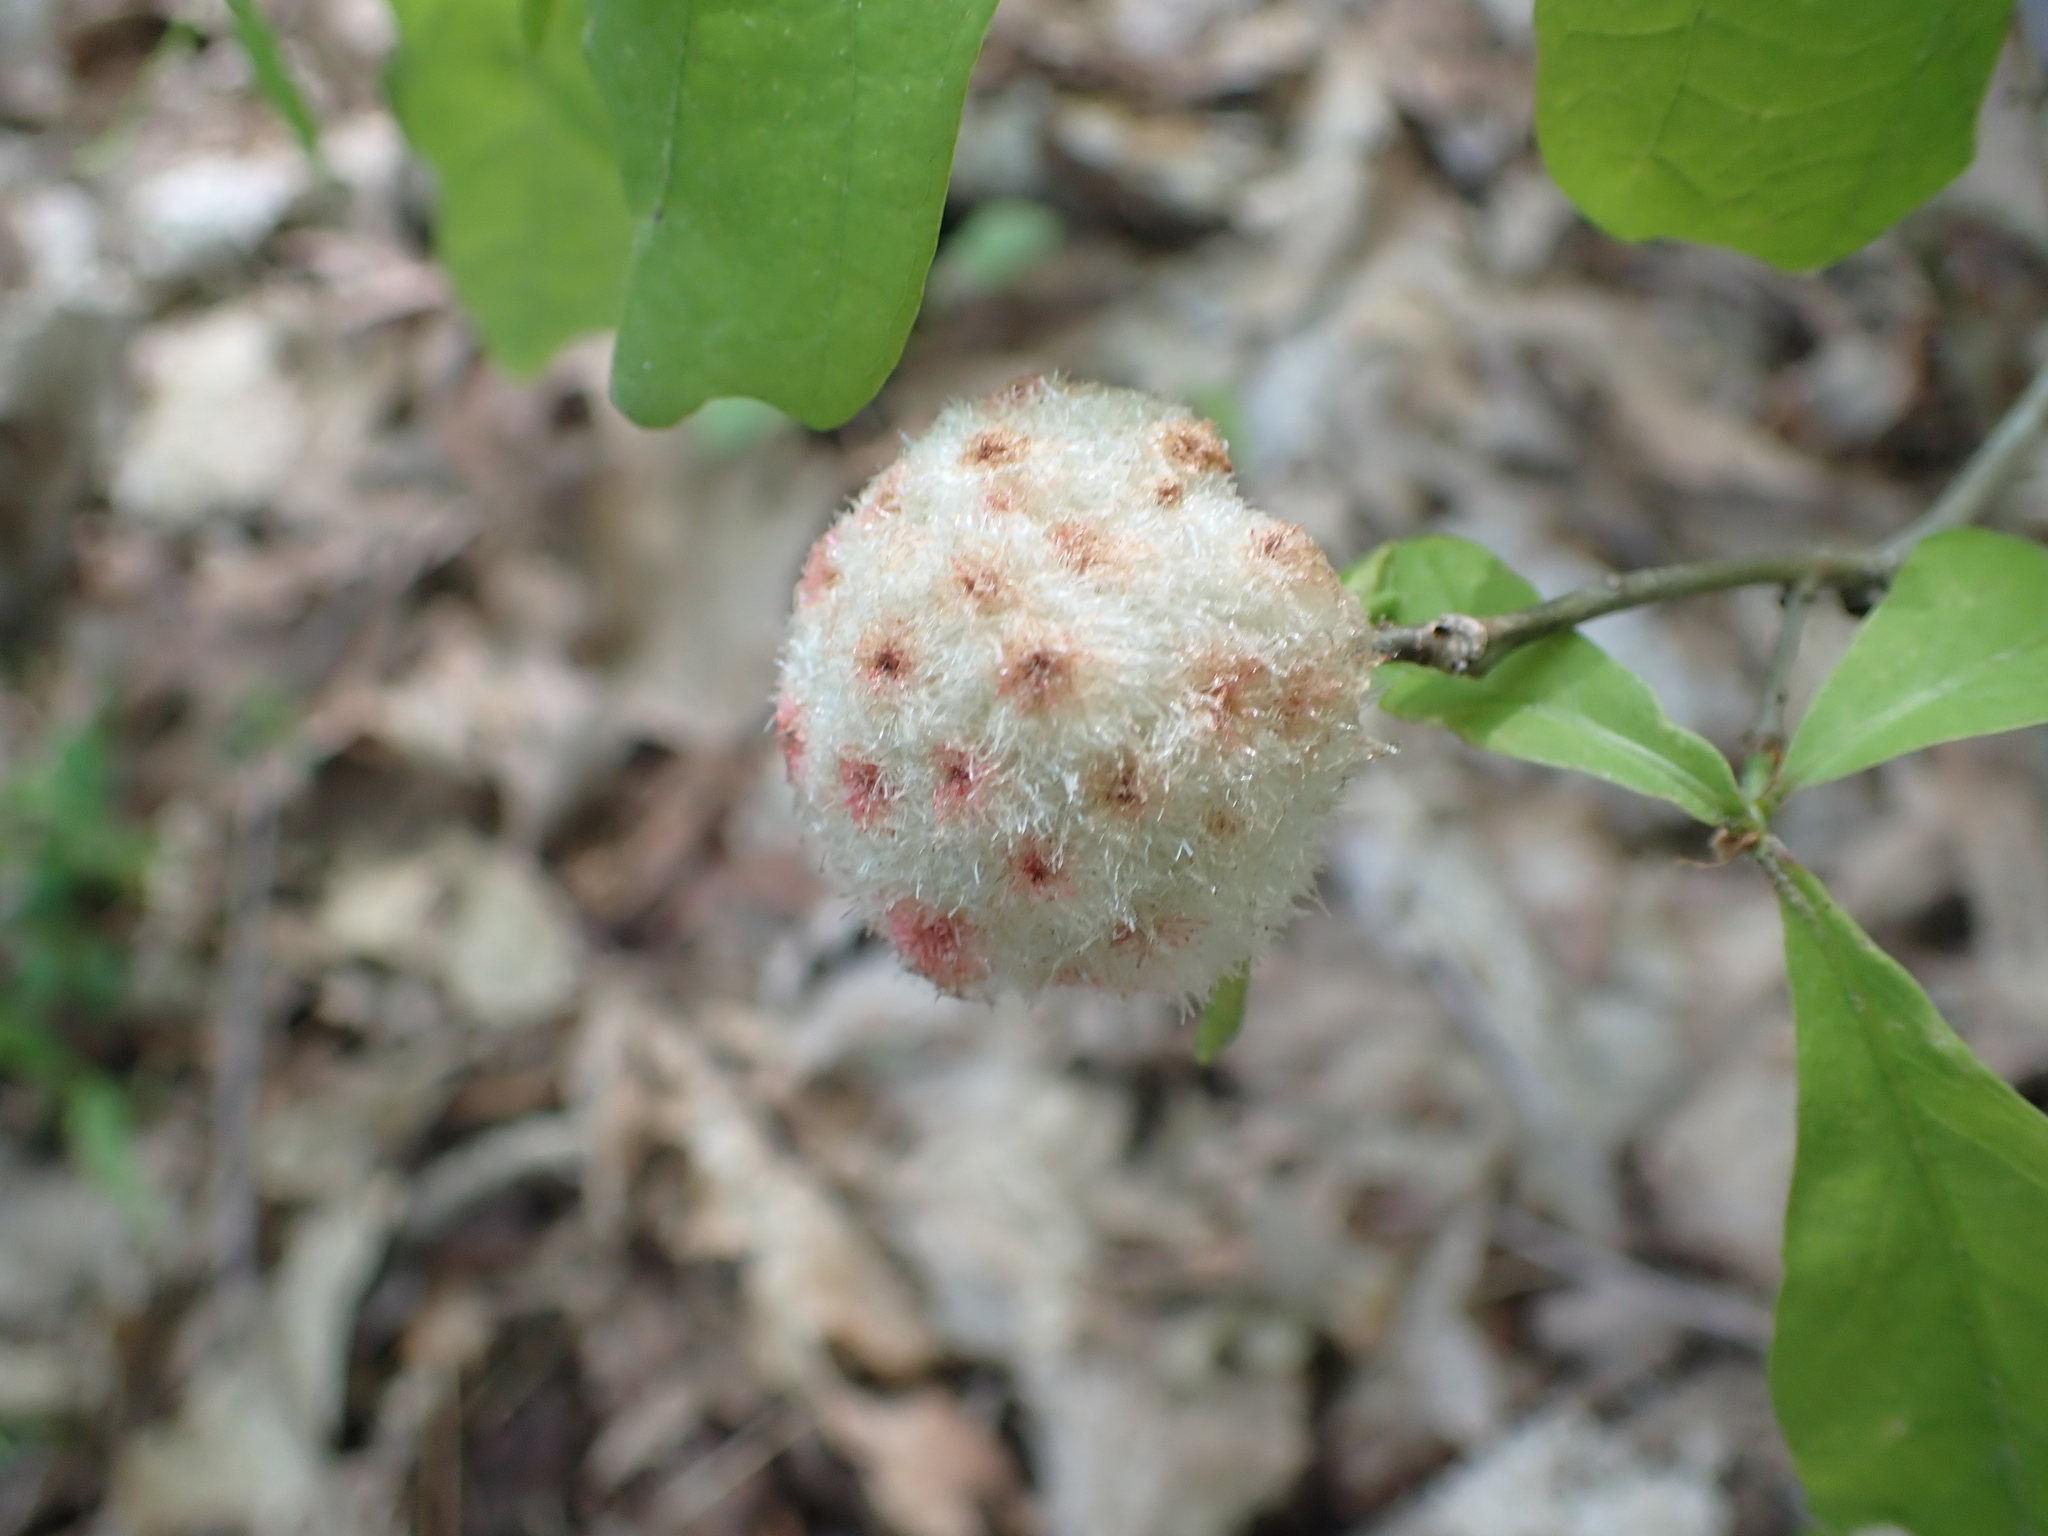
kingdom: Animalia
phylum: Arthropoda
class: Insecta
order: Hymenoptera
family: Cynipidae
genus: Callirhytis
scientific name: Callirhytis
